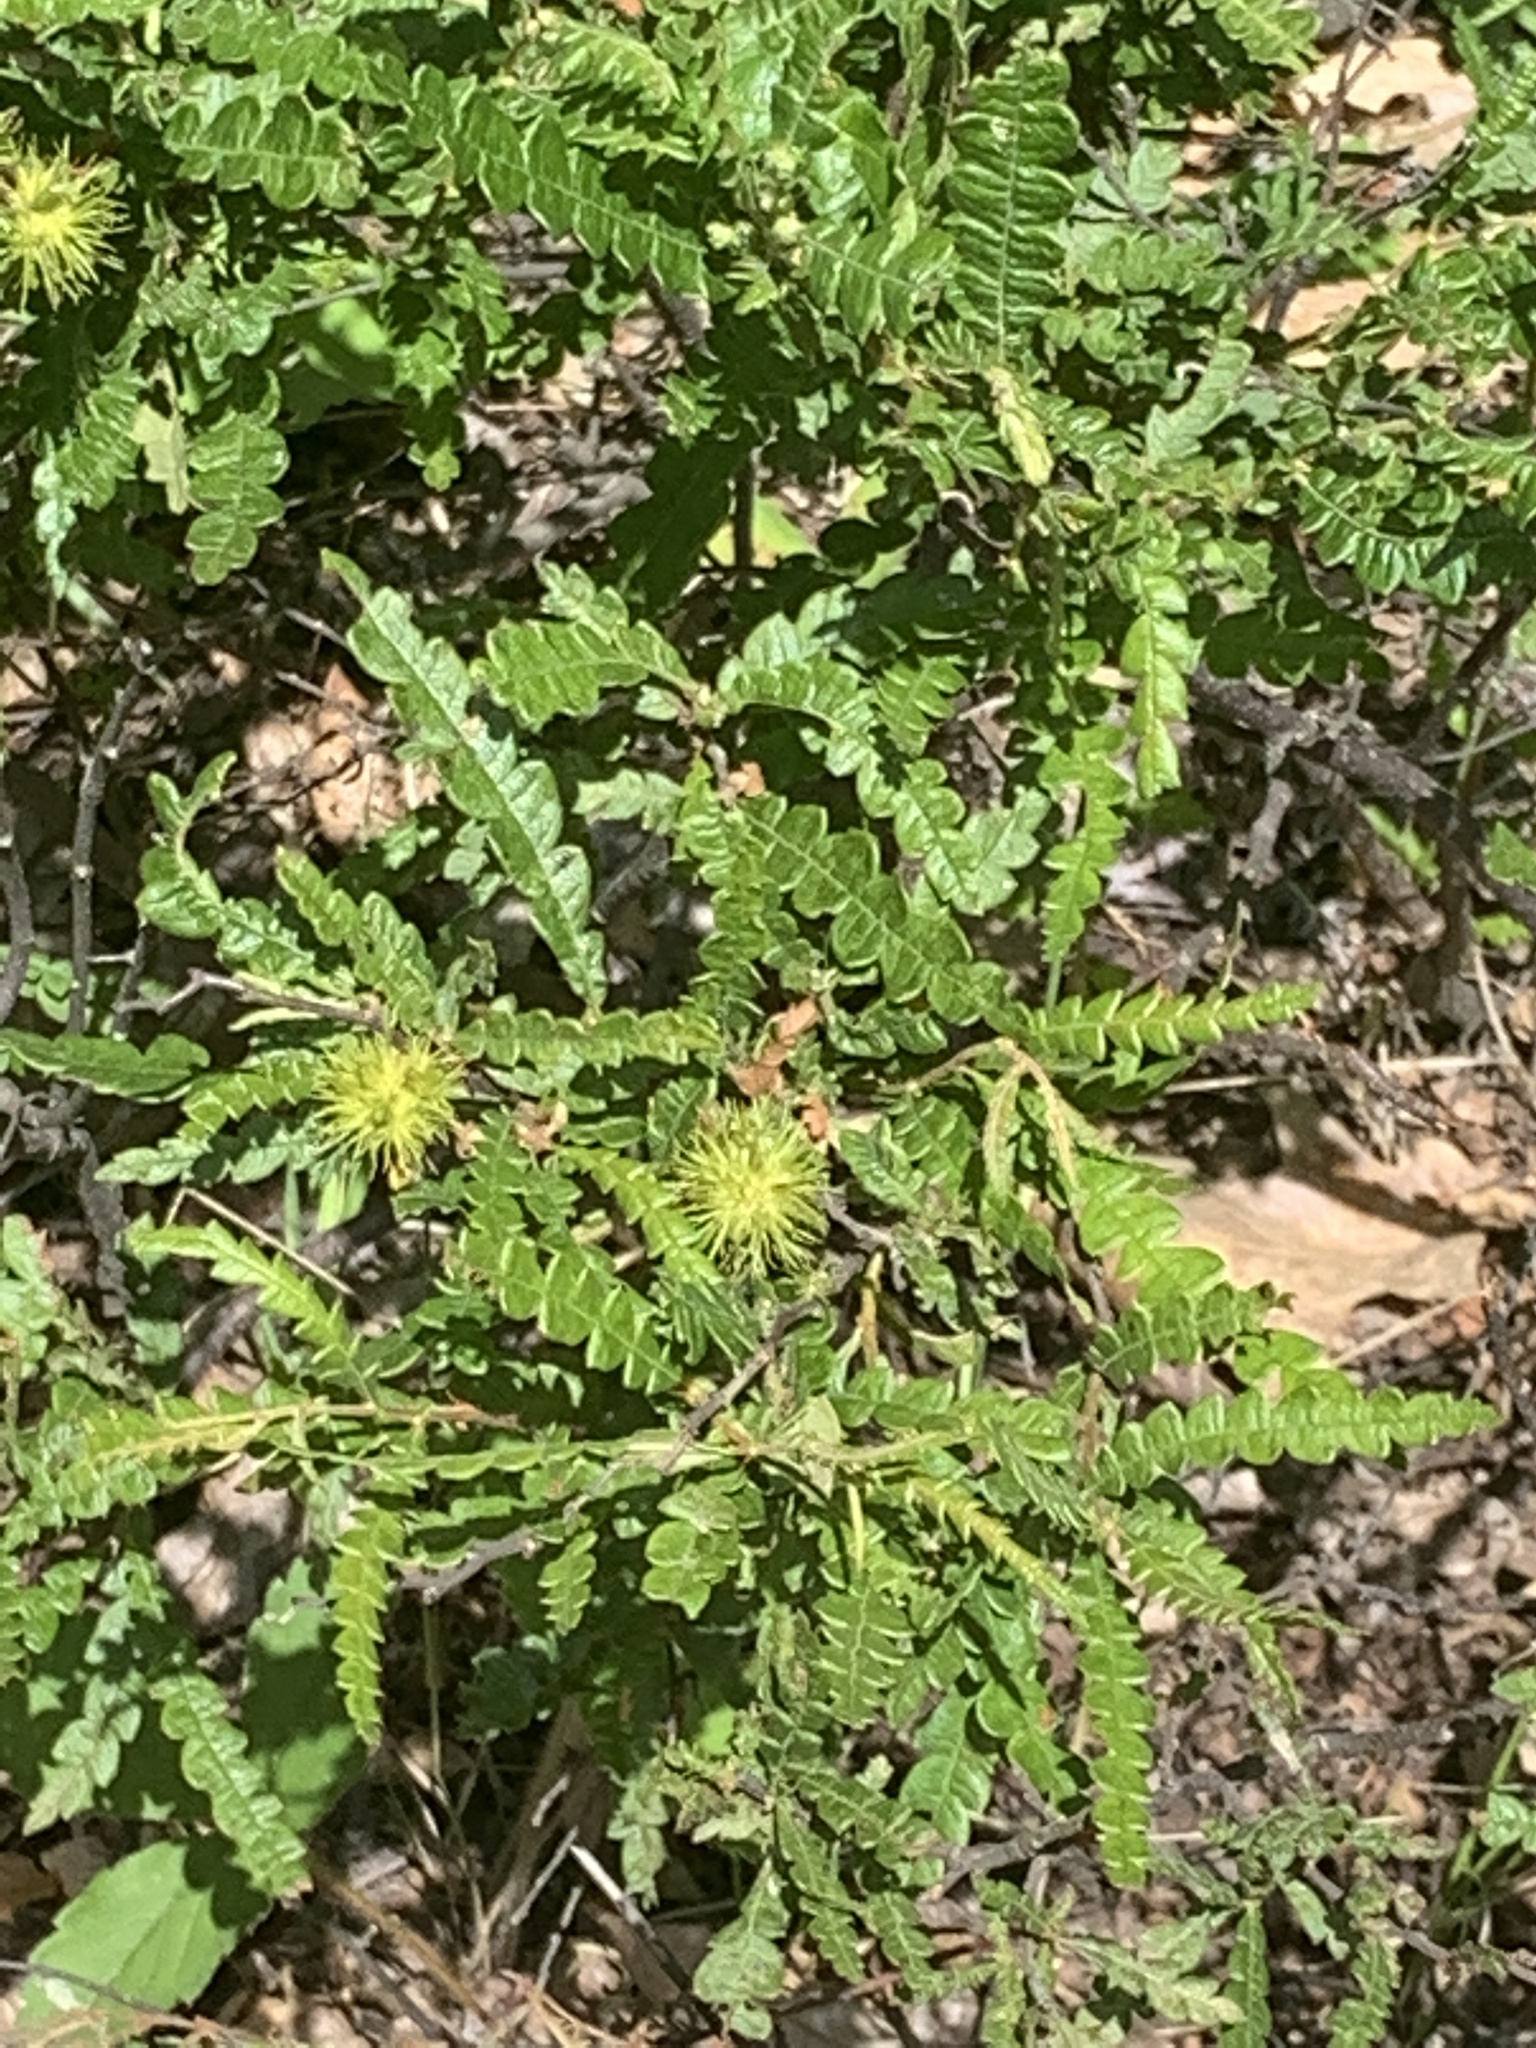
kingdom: Plantae
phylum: Tracheophyta
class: Magnoliopsida
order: Fagales
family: Myricaceae
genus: Comptonia
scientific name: Comptonia peregrina
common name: Sweet-fern
